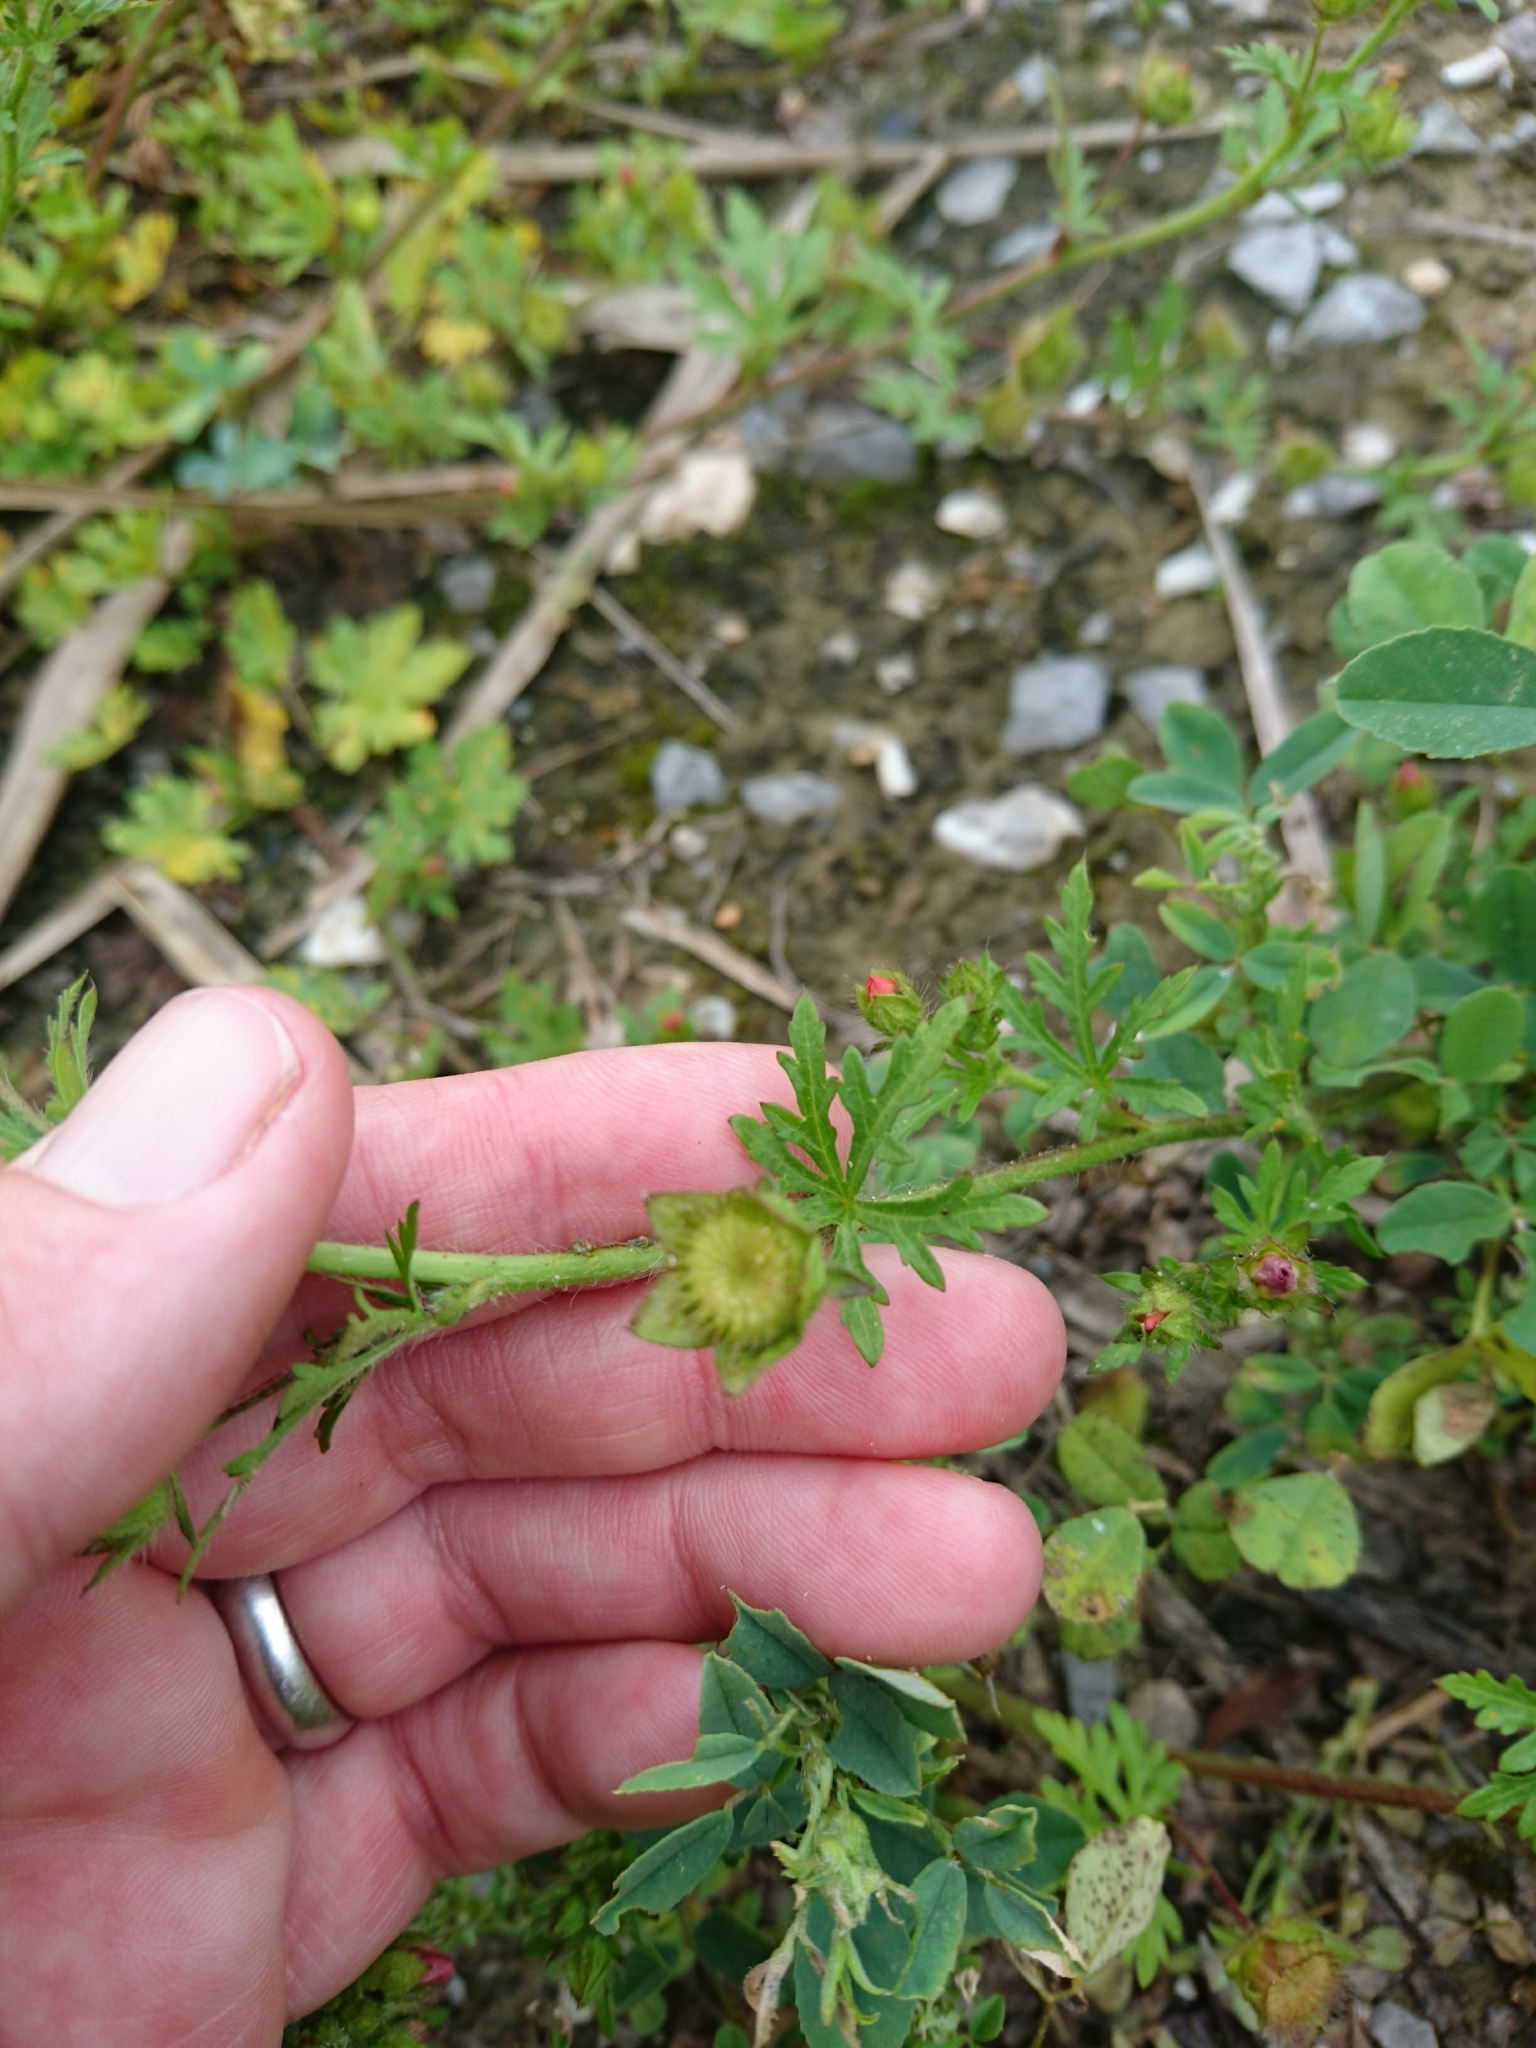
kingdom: Plantae
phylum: Tracheophyta
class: Magnoliopsida
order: Malvales
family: Malvaceae
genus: Modiola
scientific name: Modiola caroliniana
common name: Carolina bristlemallow
